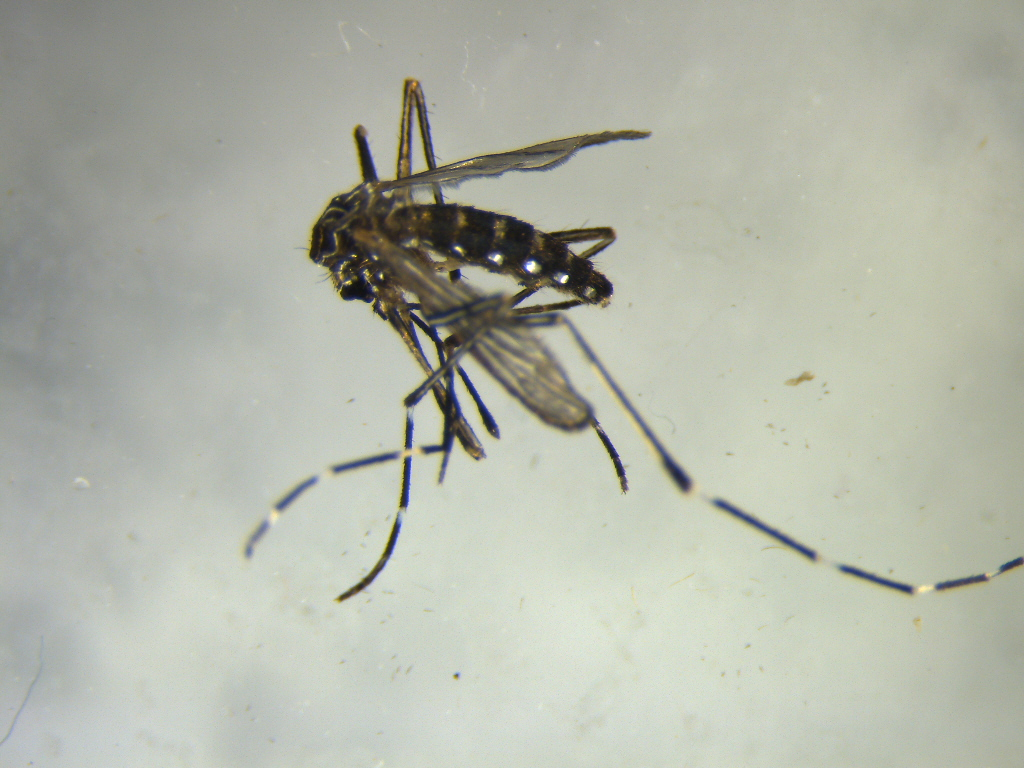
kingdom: Animalia
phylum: Arthropoda
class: Insecta
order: Diptera
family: Culicidae
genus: Aedes
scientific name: Aedes notoscriptus
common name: Australian backyard mosquito
